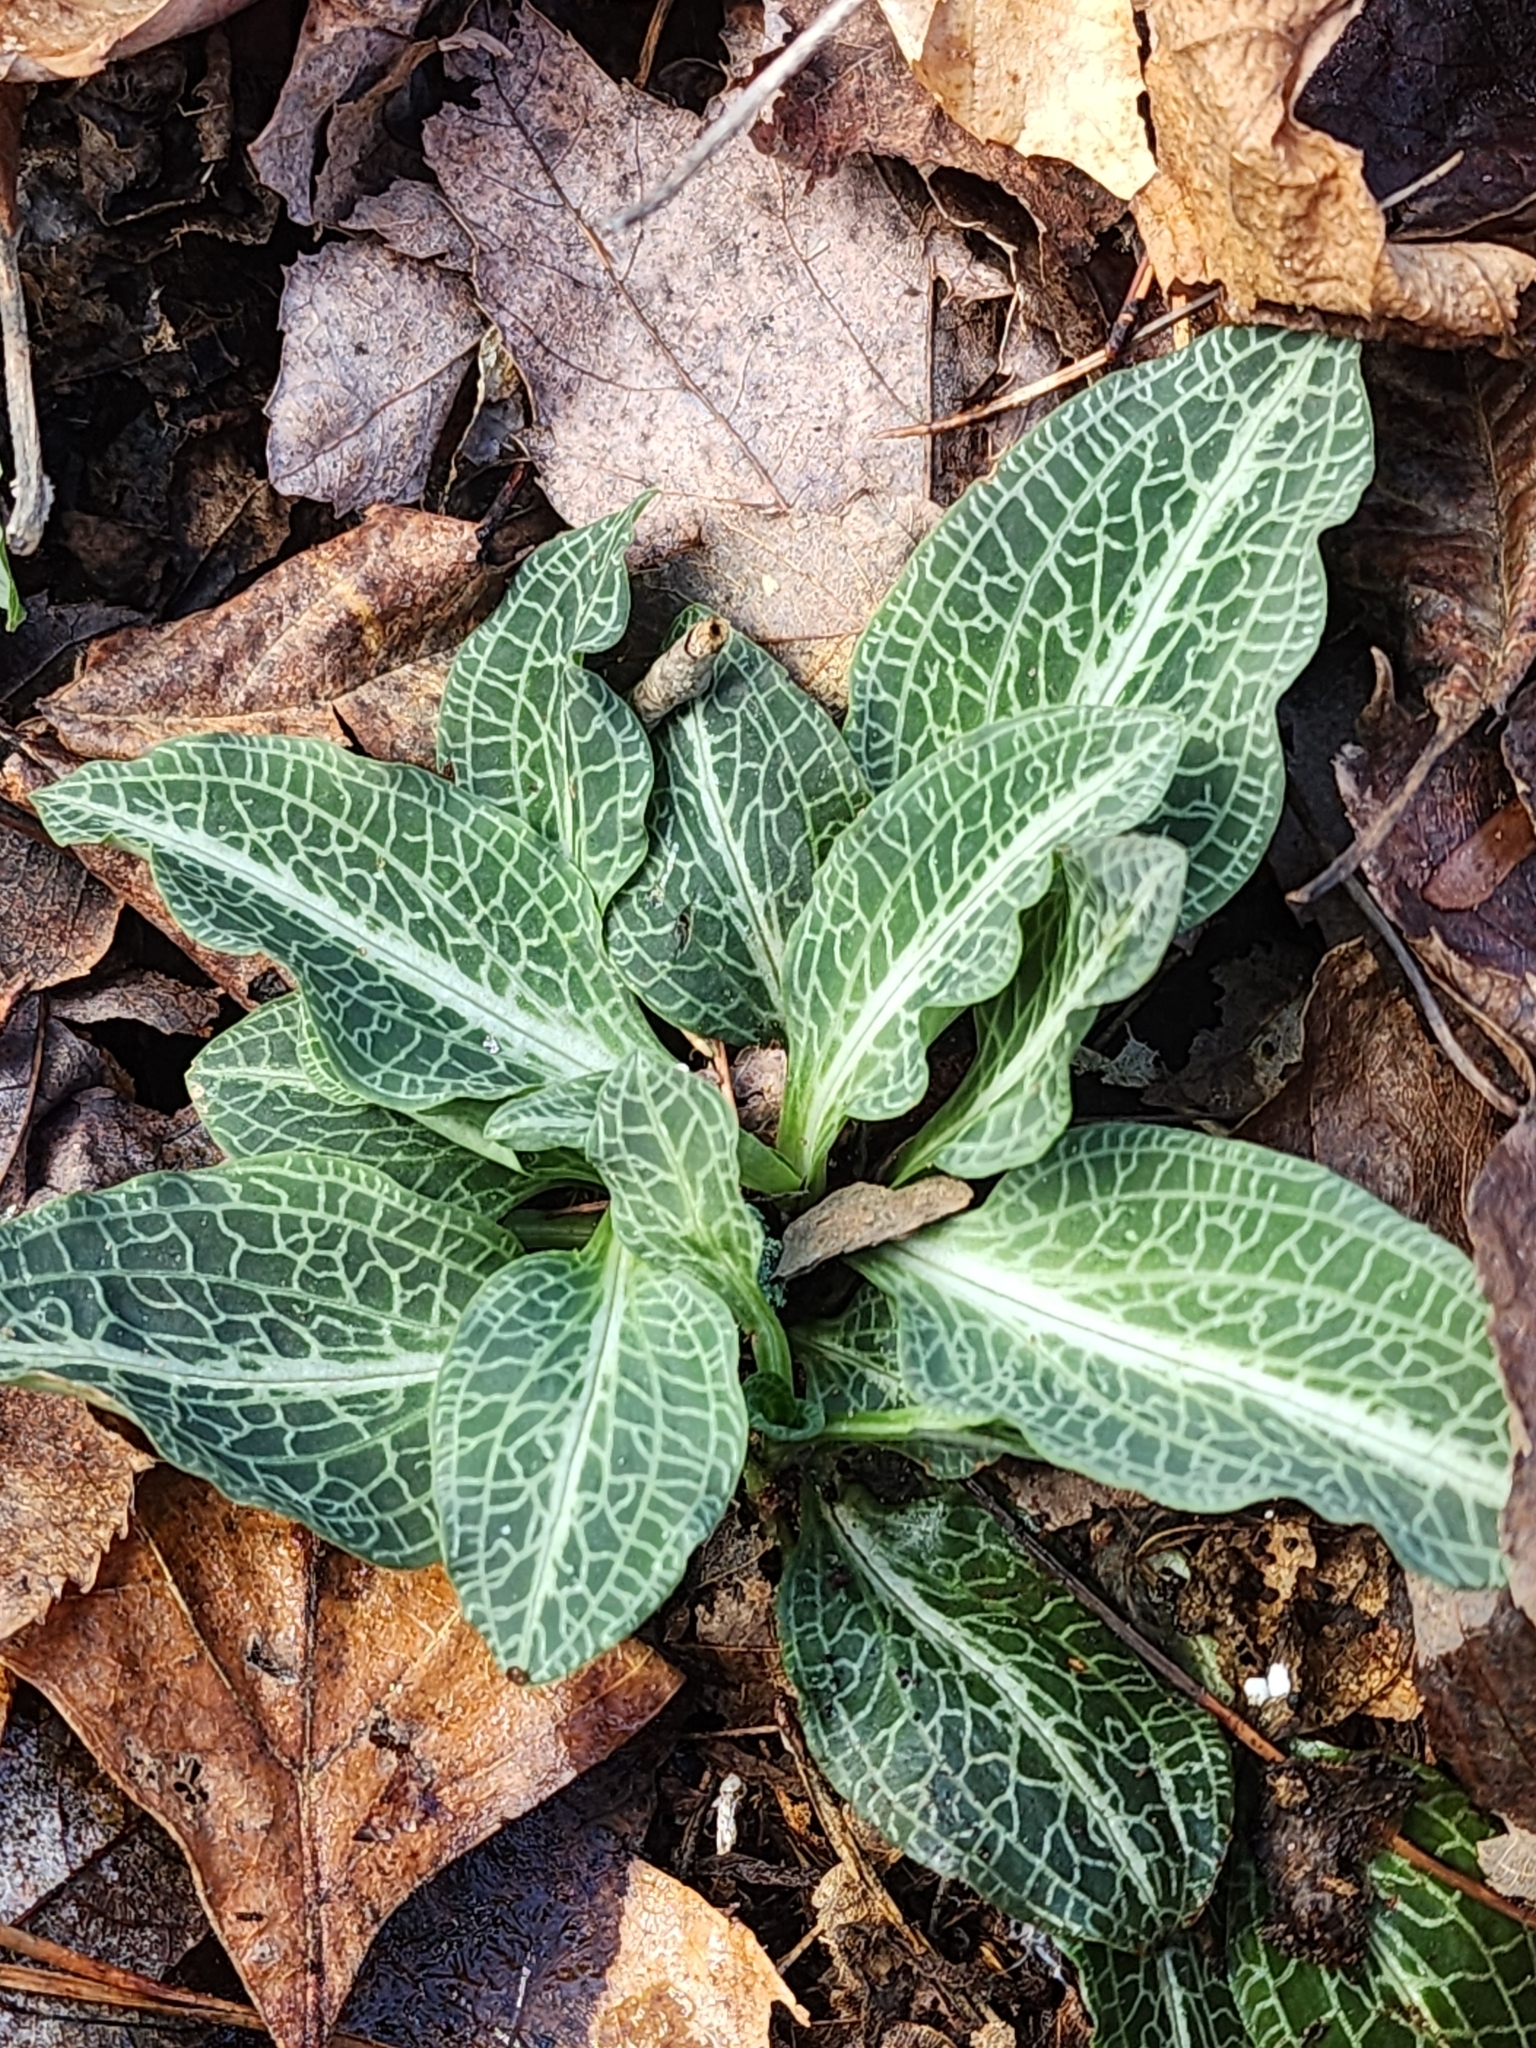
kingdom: Plantae
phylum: Tracheophyta
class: Liliopsida
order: Asparagales
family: Orchidaceae
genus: Goodyera
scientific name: Goodyera pubescens
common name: Downy rattlesnake-plantain
